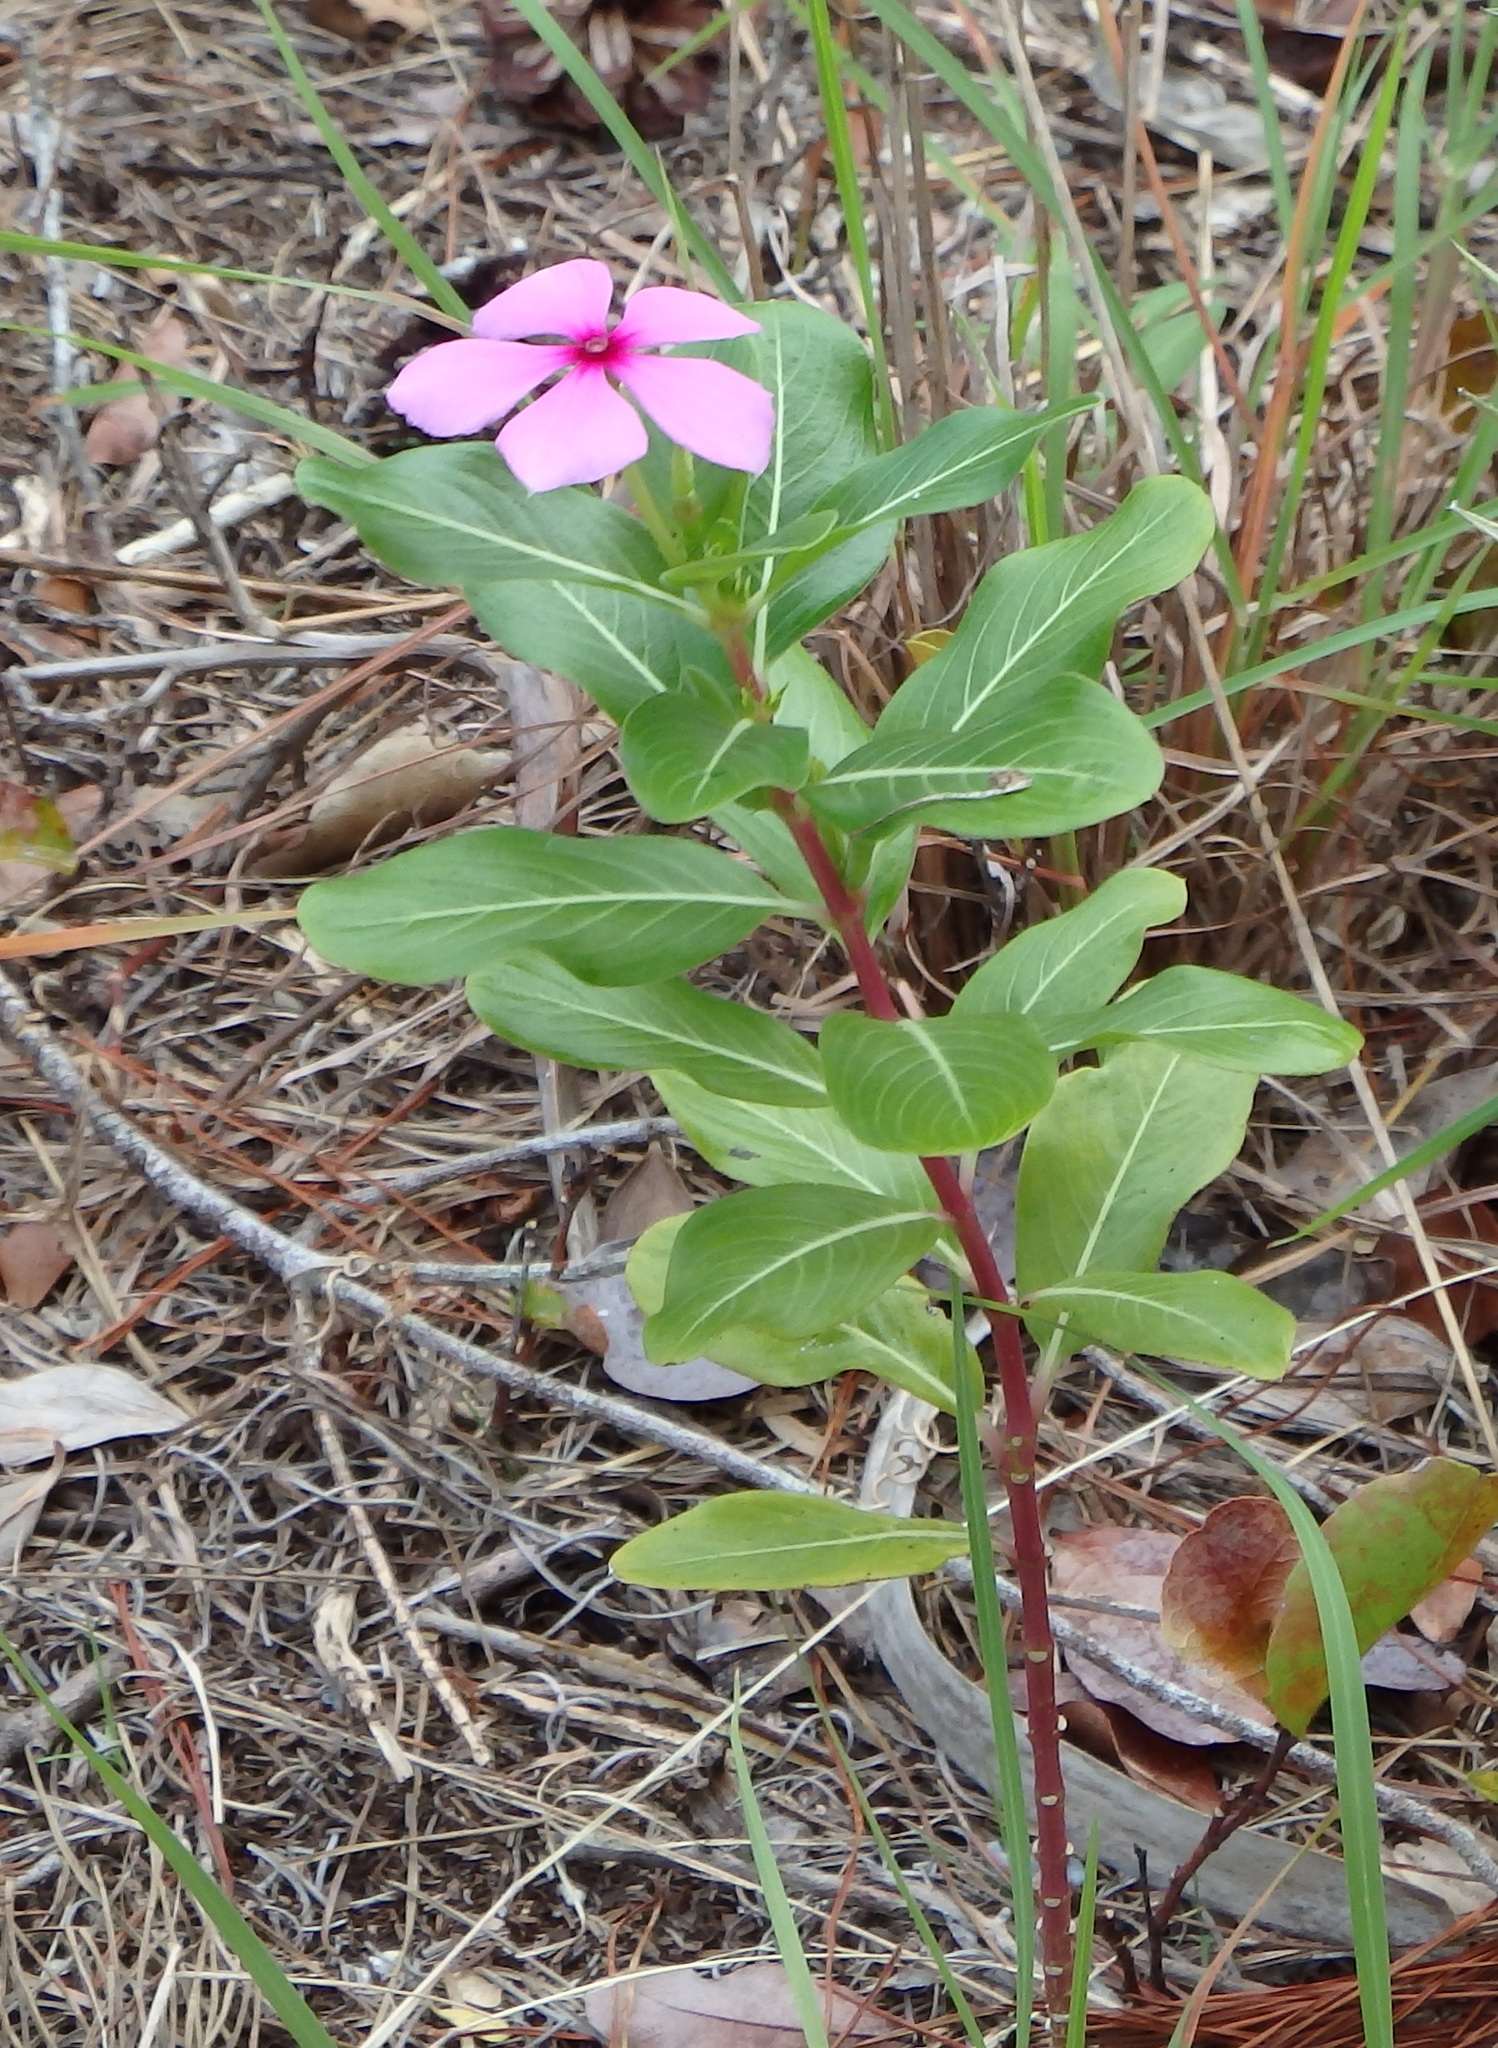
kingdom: Plantae
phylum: Tracheophyta
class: Magnoliopsida
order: Gentianales
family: Apocynaceae
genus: Catharanthus
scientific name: Catharanthus roseus
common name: Madagascar periwinkle
